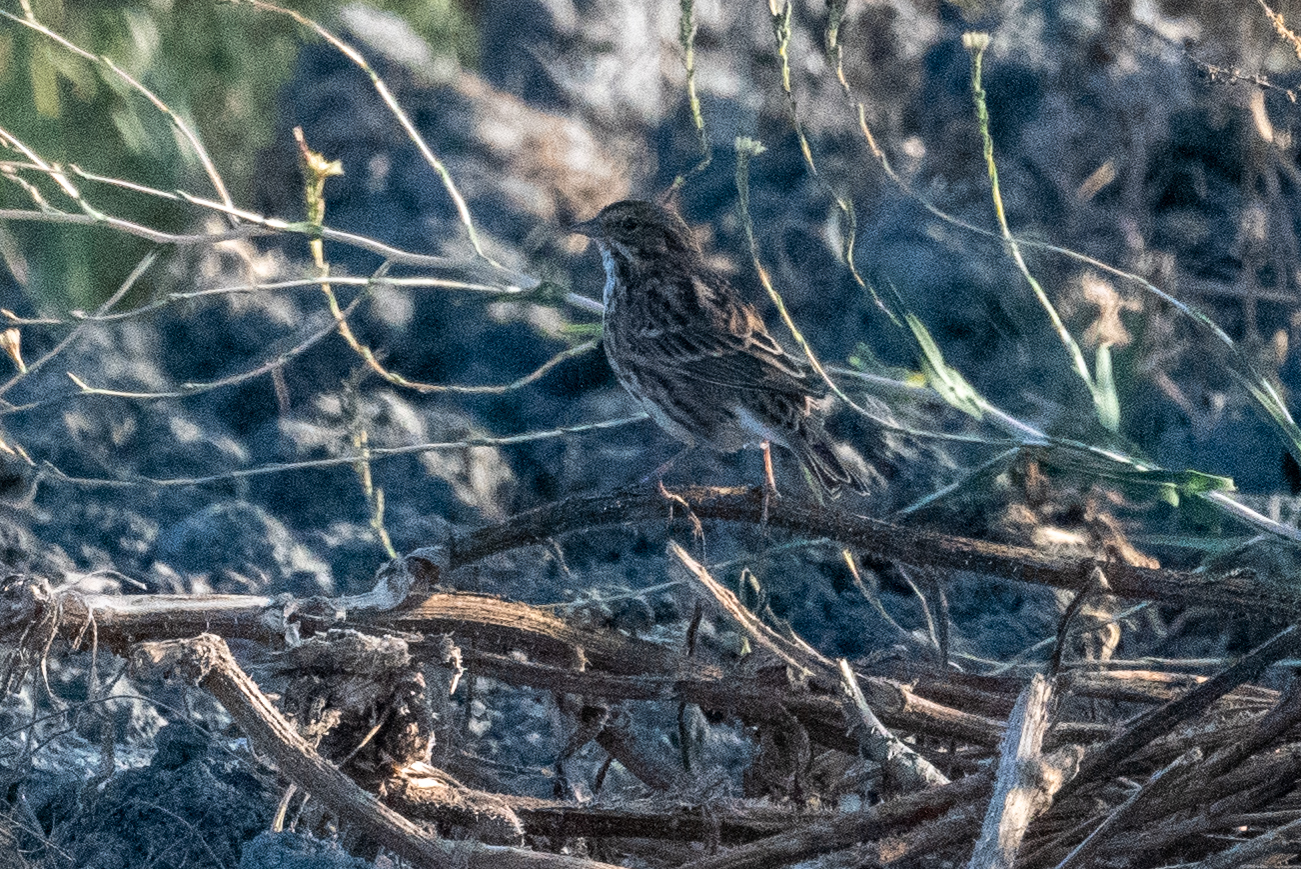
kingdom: Animalia
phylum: Chordata
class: Aves
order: Passeriformes
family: Passerellidae
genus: Passerculus
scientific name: Passerculus sandwichensis
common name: Savannah sparrow
